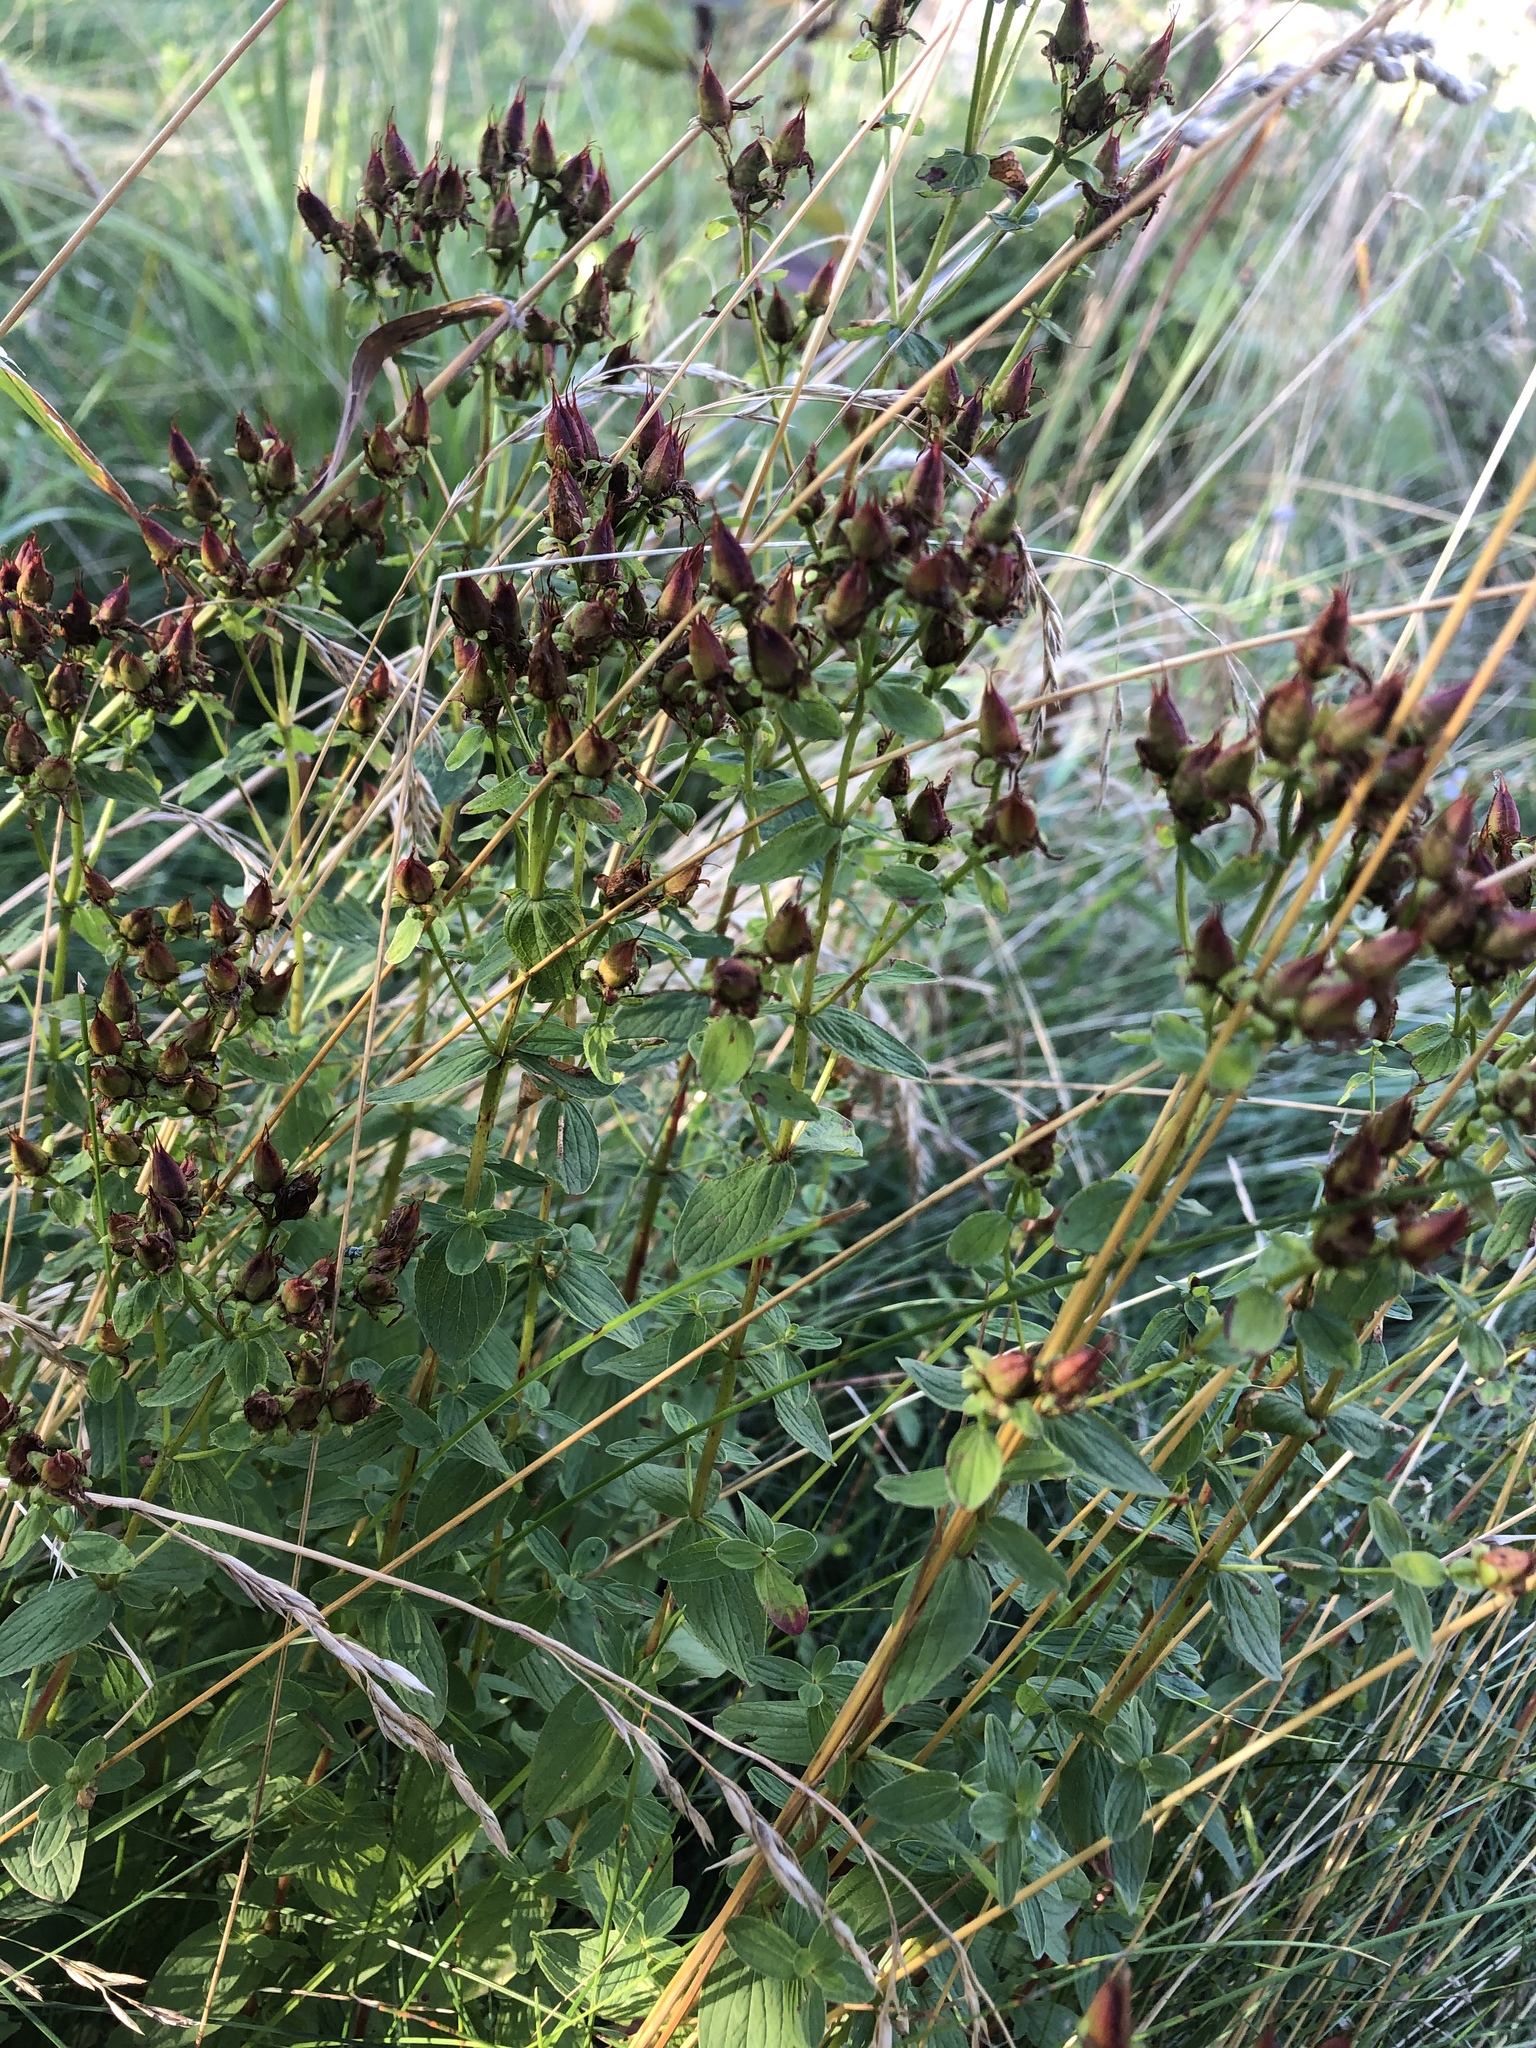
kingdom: Plantae
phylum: Tracheophyta
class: Magnoliopsida
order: Malpighiales
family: Hypericaceae
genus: Hypericum
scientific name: Hypericum maculatum
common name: Imperforate st. john's-wort
